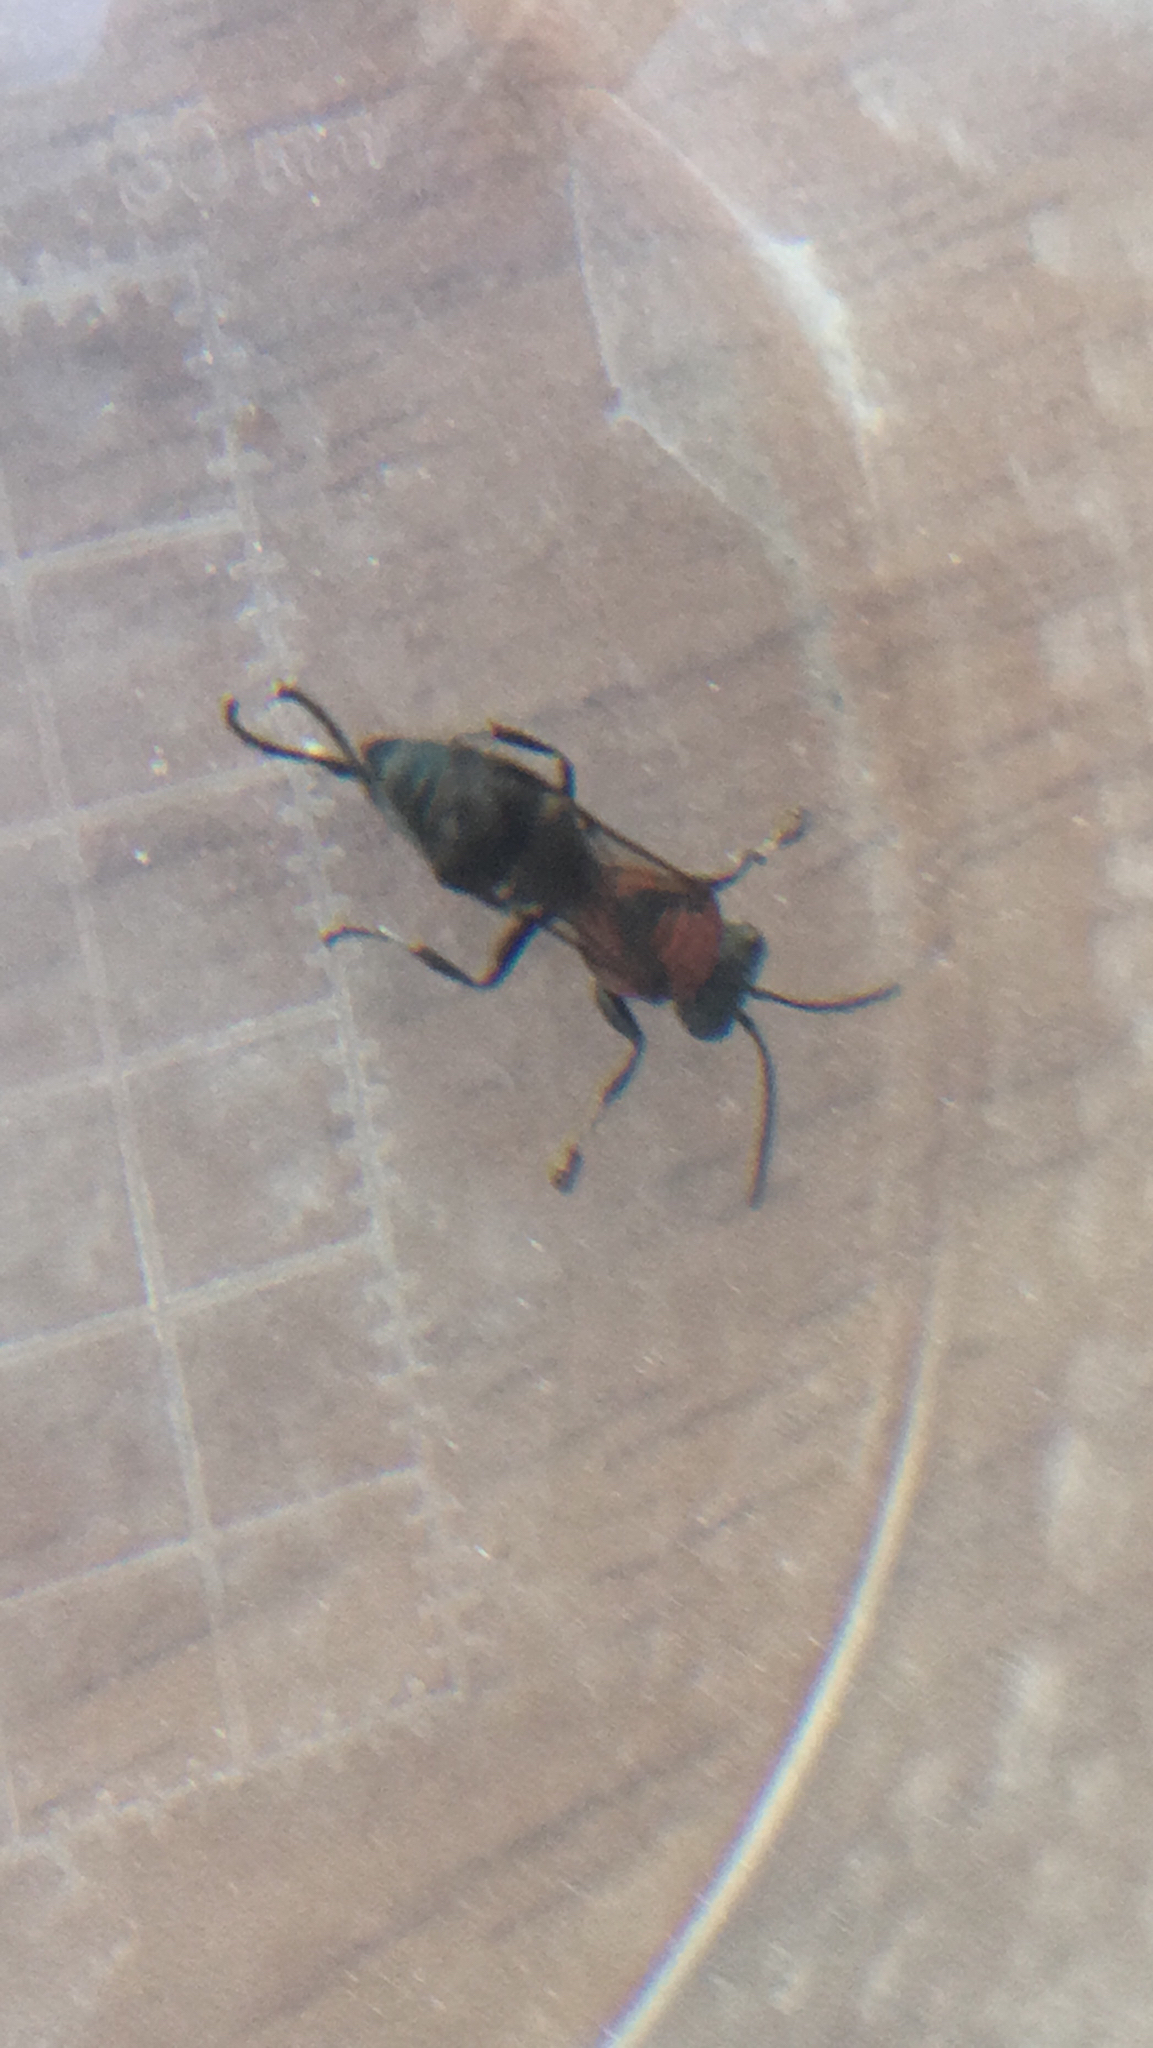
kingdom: Animalia
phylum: Arthropoda
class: Insecta
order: Hymenoptera
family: Crabronidae
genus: Oryttus
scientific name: Oryttus concinnus
